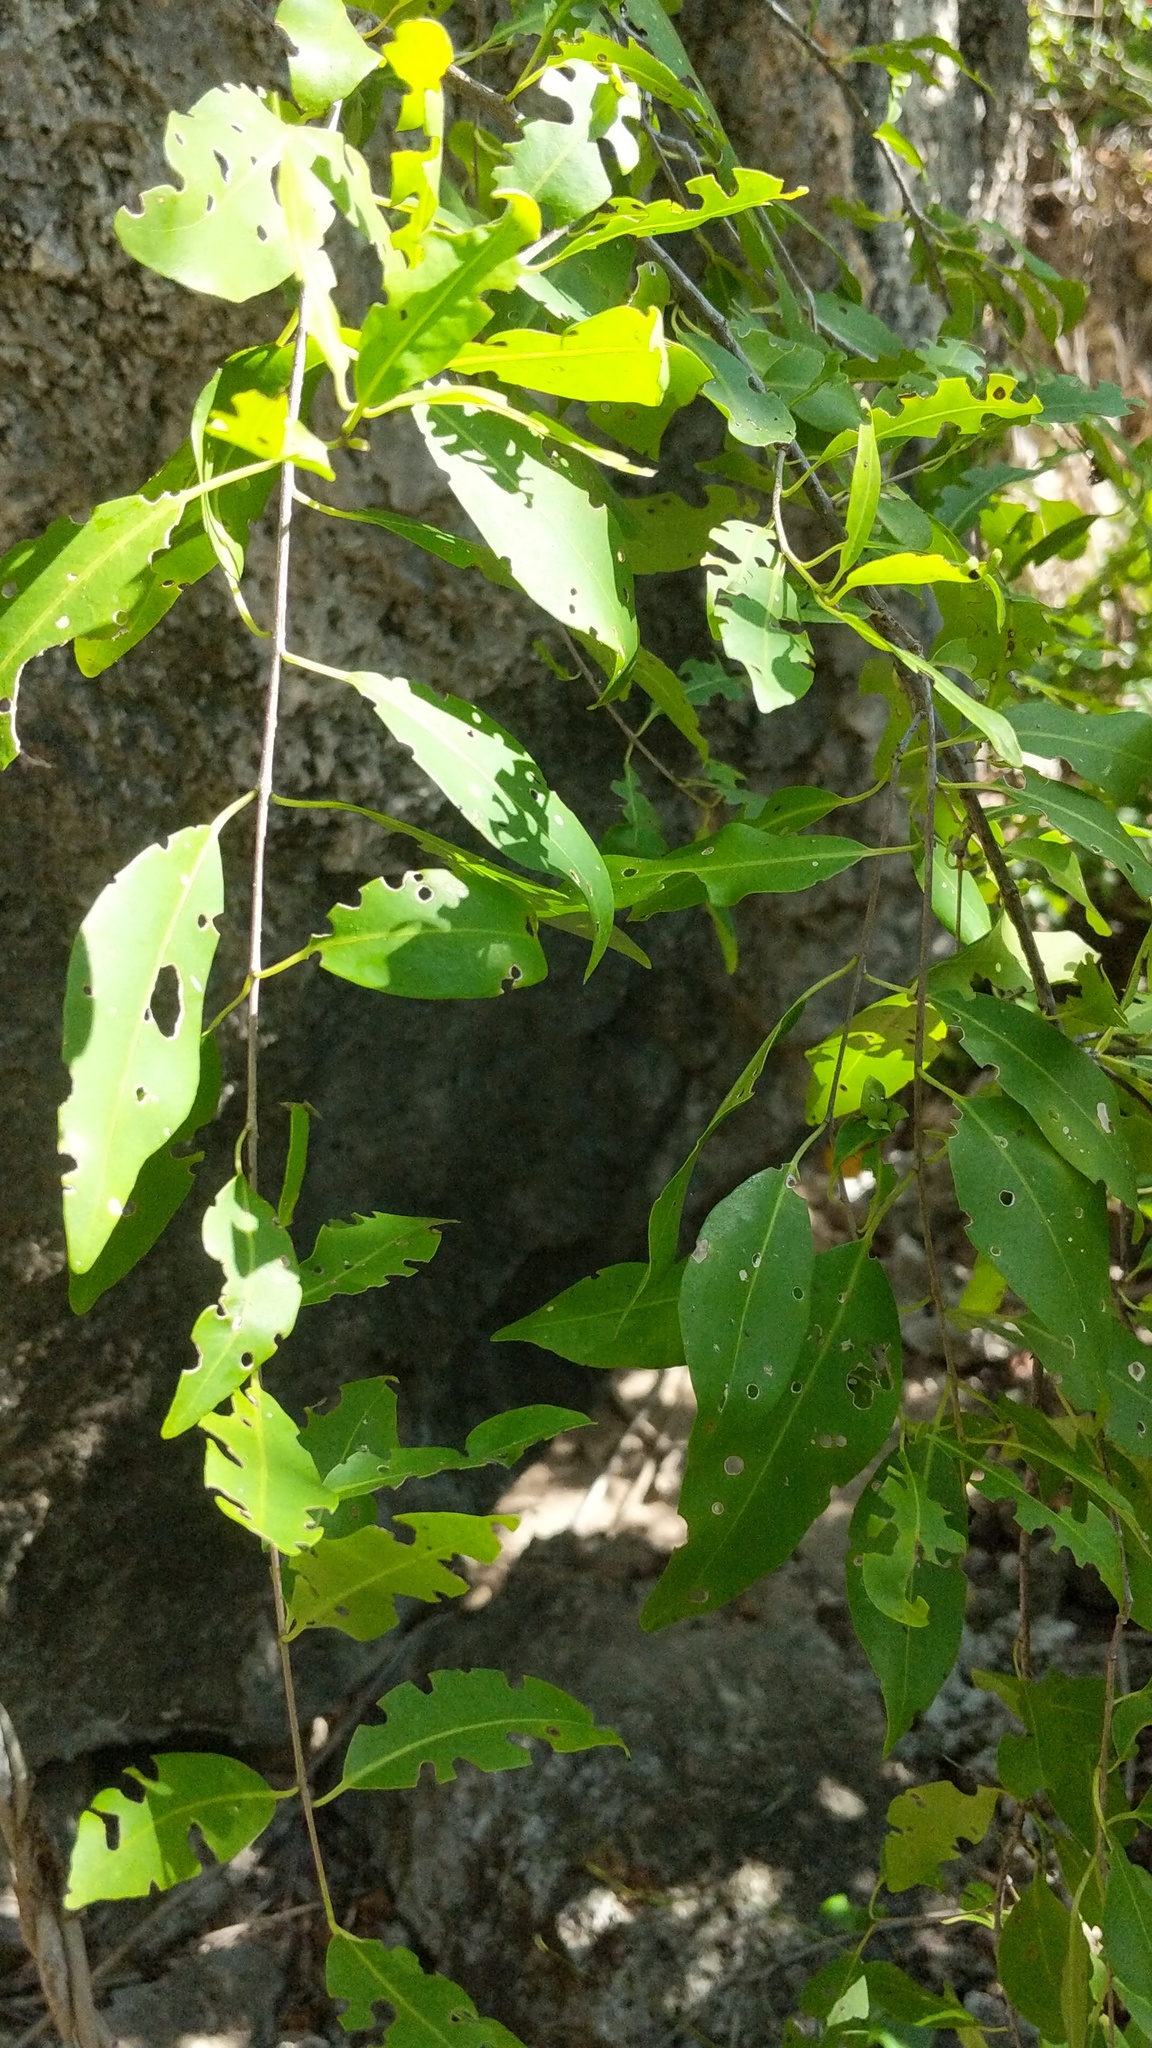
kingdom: Plantae
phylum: Tracheophyta
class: Magnoliopsida
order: Caryophyllales
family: Nyctaginaceae
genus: Guapira
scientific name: Guapira discolor
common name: Beeftree
